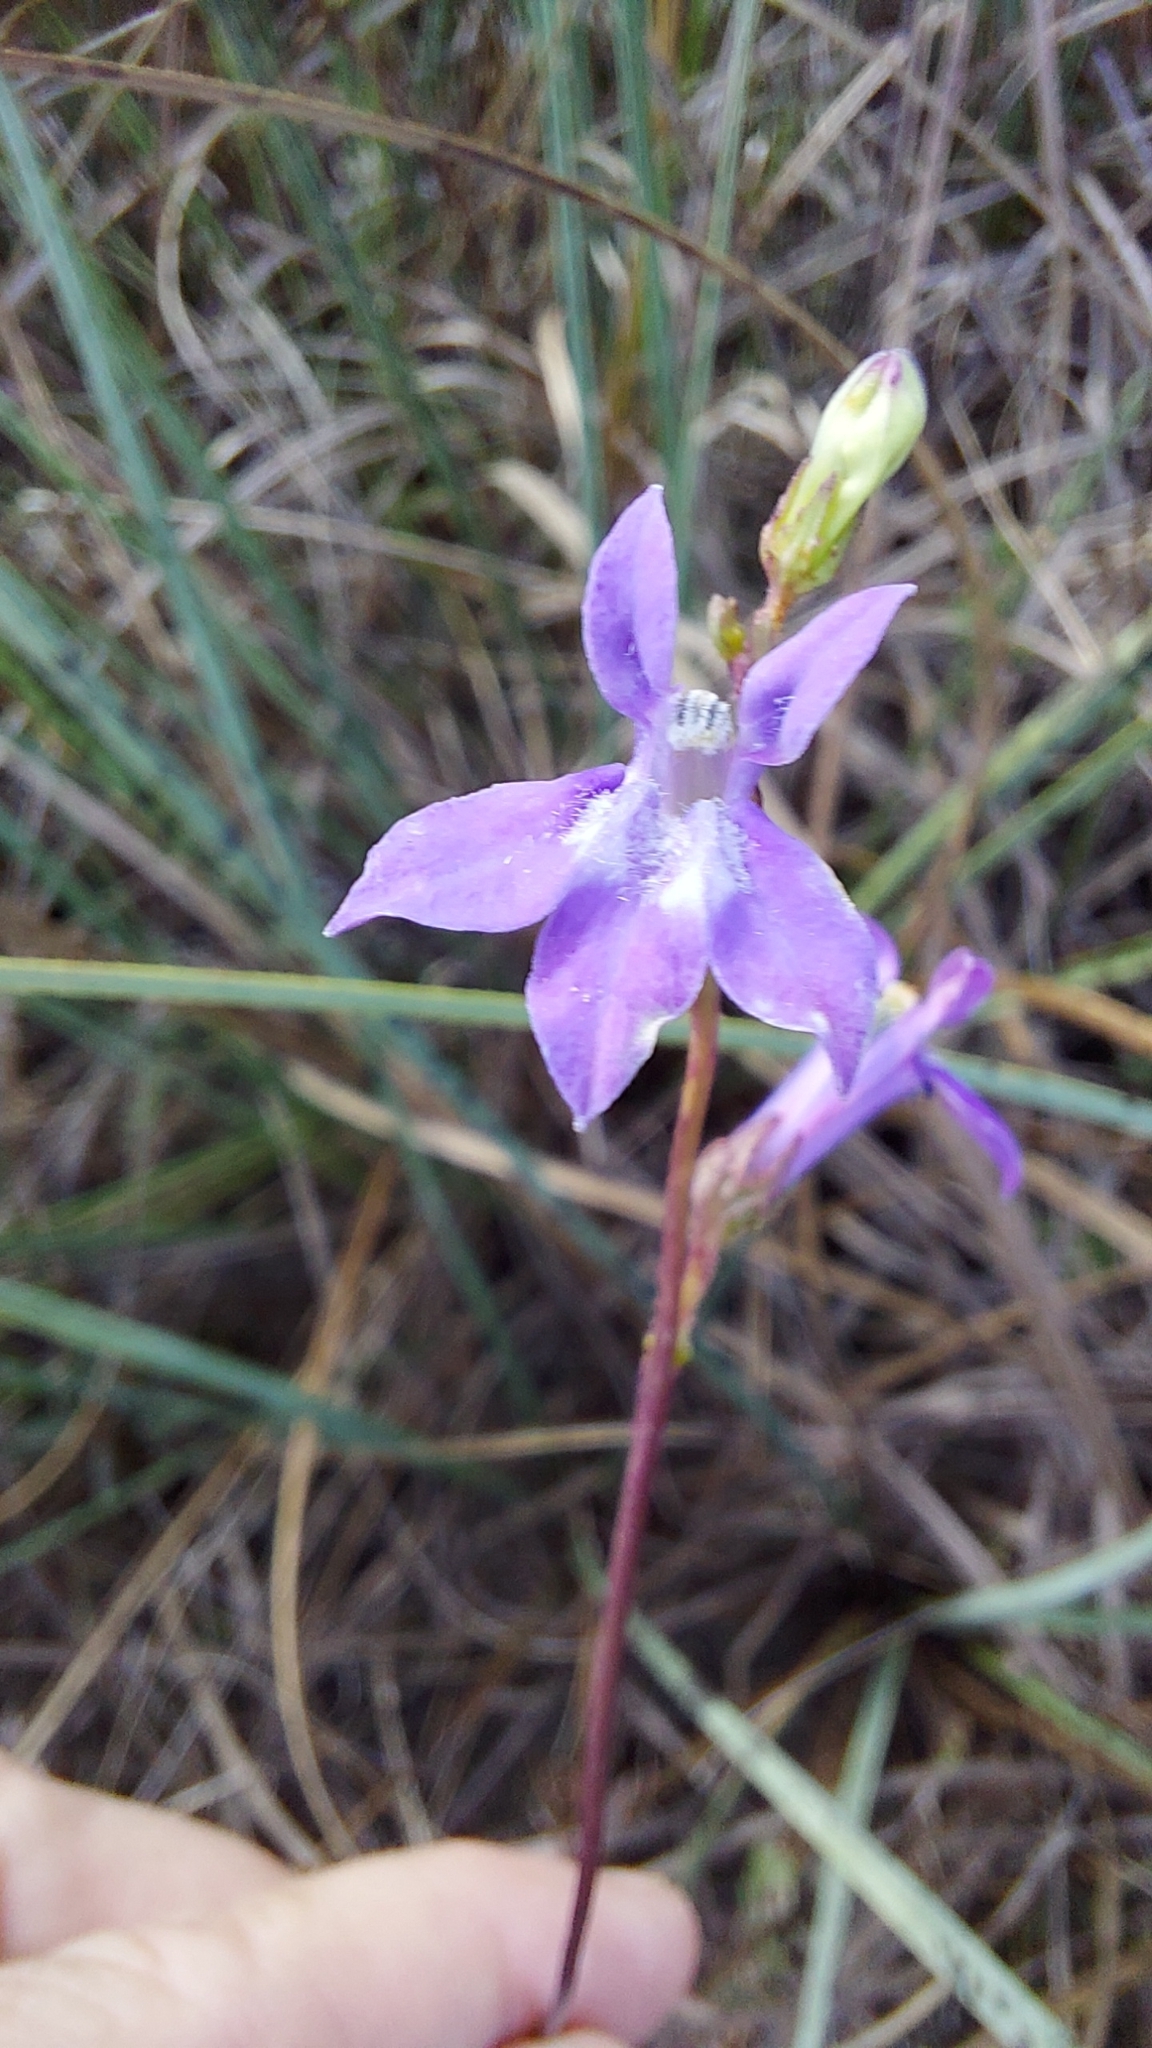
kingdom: Plantae
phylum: Tracheophyta
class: Magnoliopsida
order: Asterales
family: Campanulaceae
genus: Lobelia
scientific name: Lobelia glandulosa
